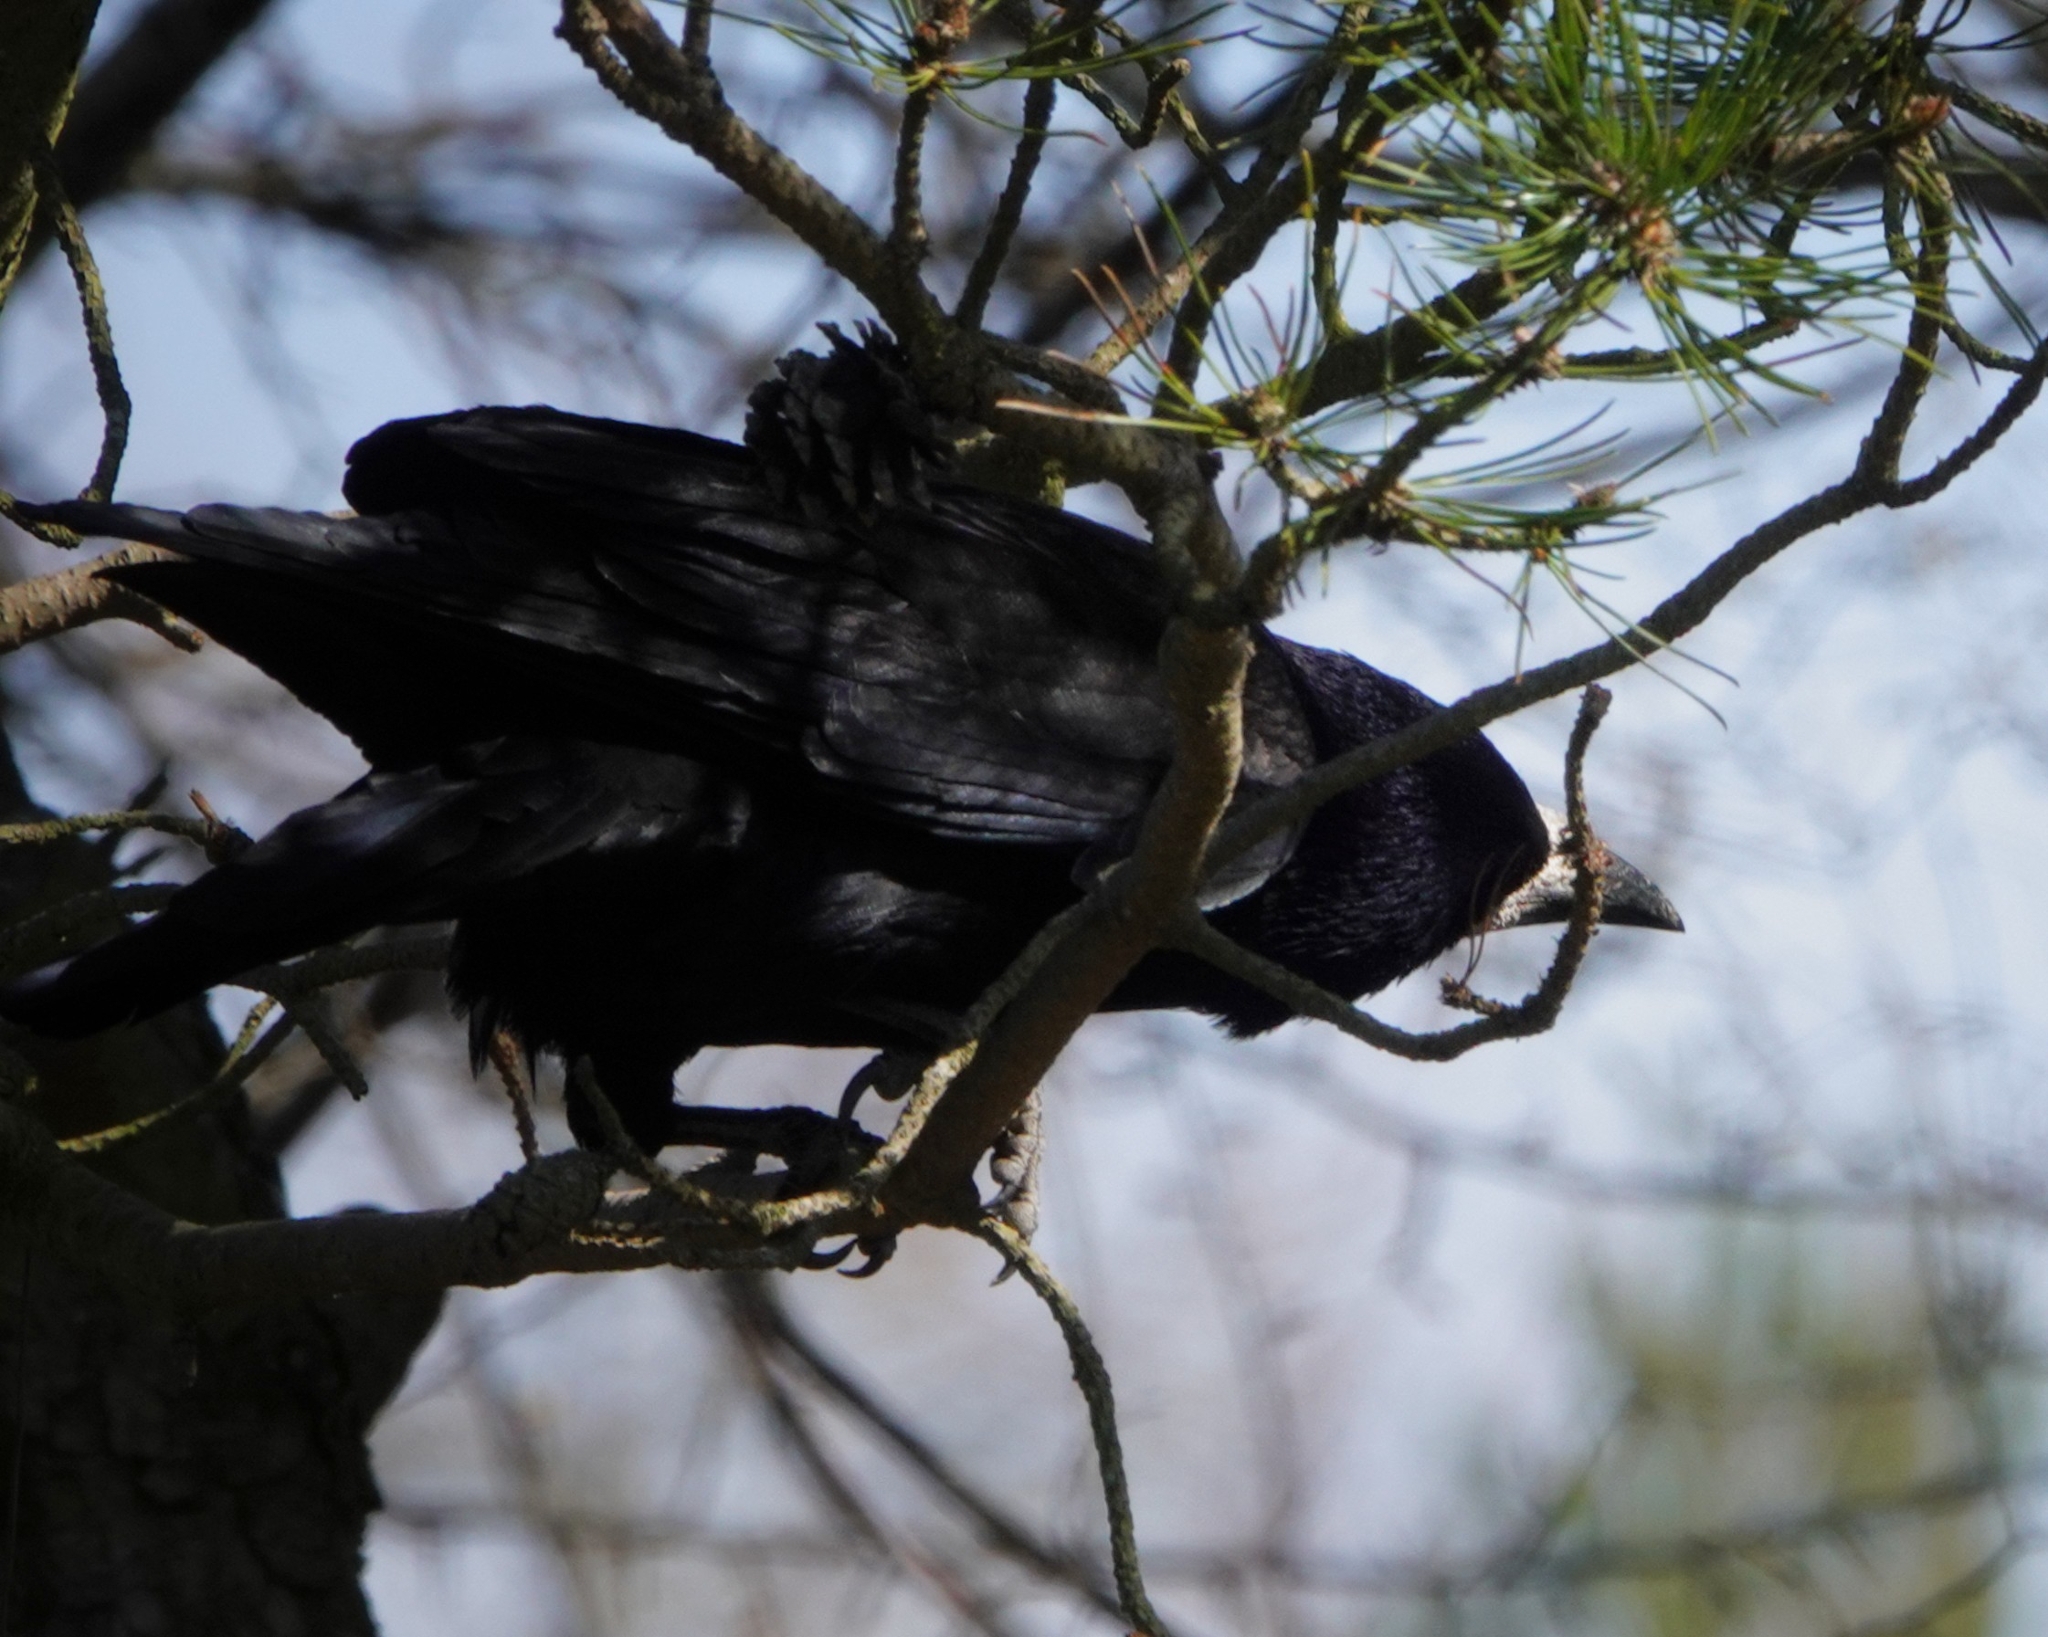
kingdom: Animalia
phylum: Chordata
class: Aves
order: Passeriformes
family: Corvidae
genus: Corvus
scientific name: Corvus frugilegus
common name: Rook
